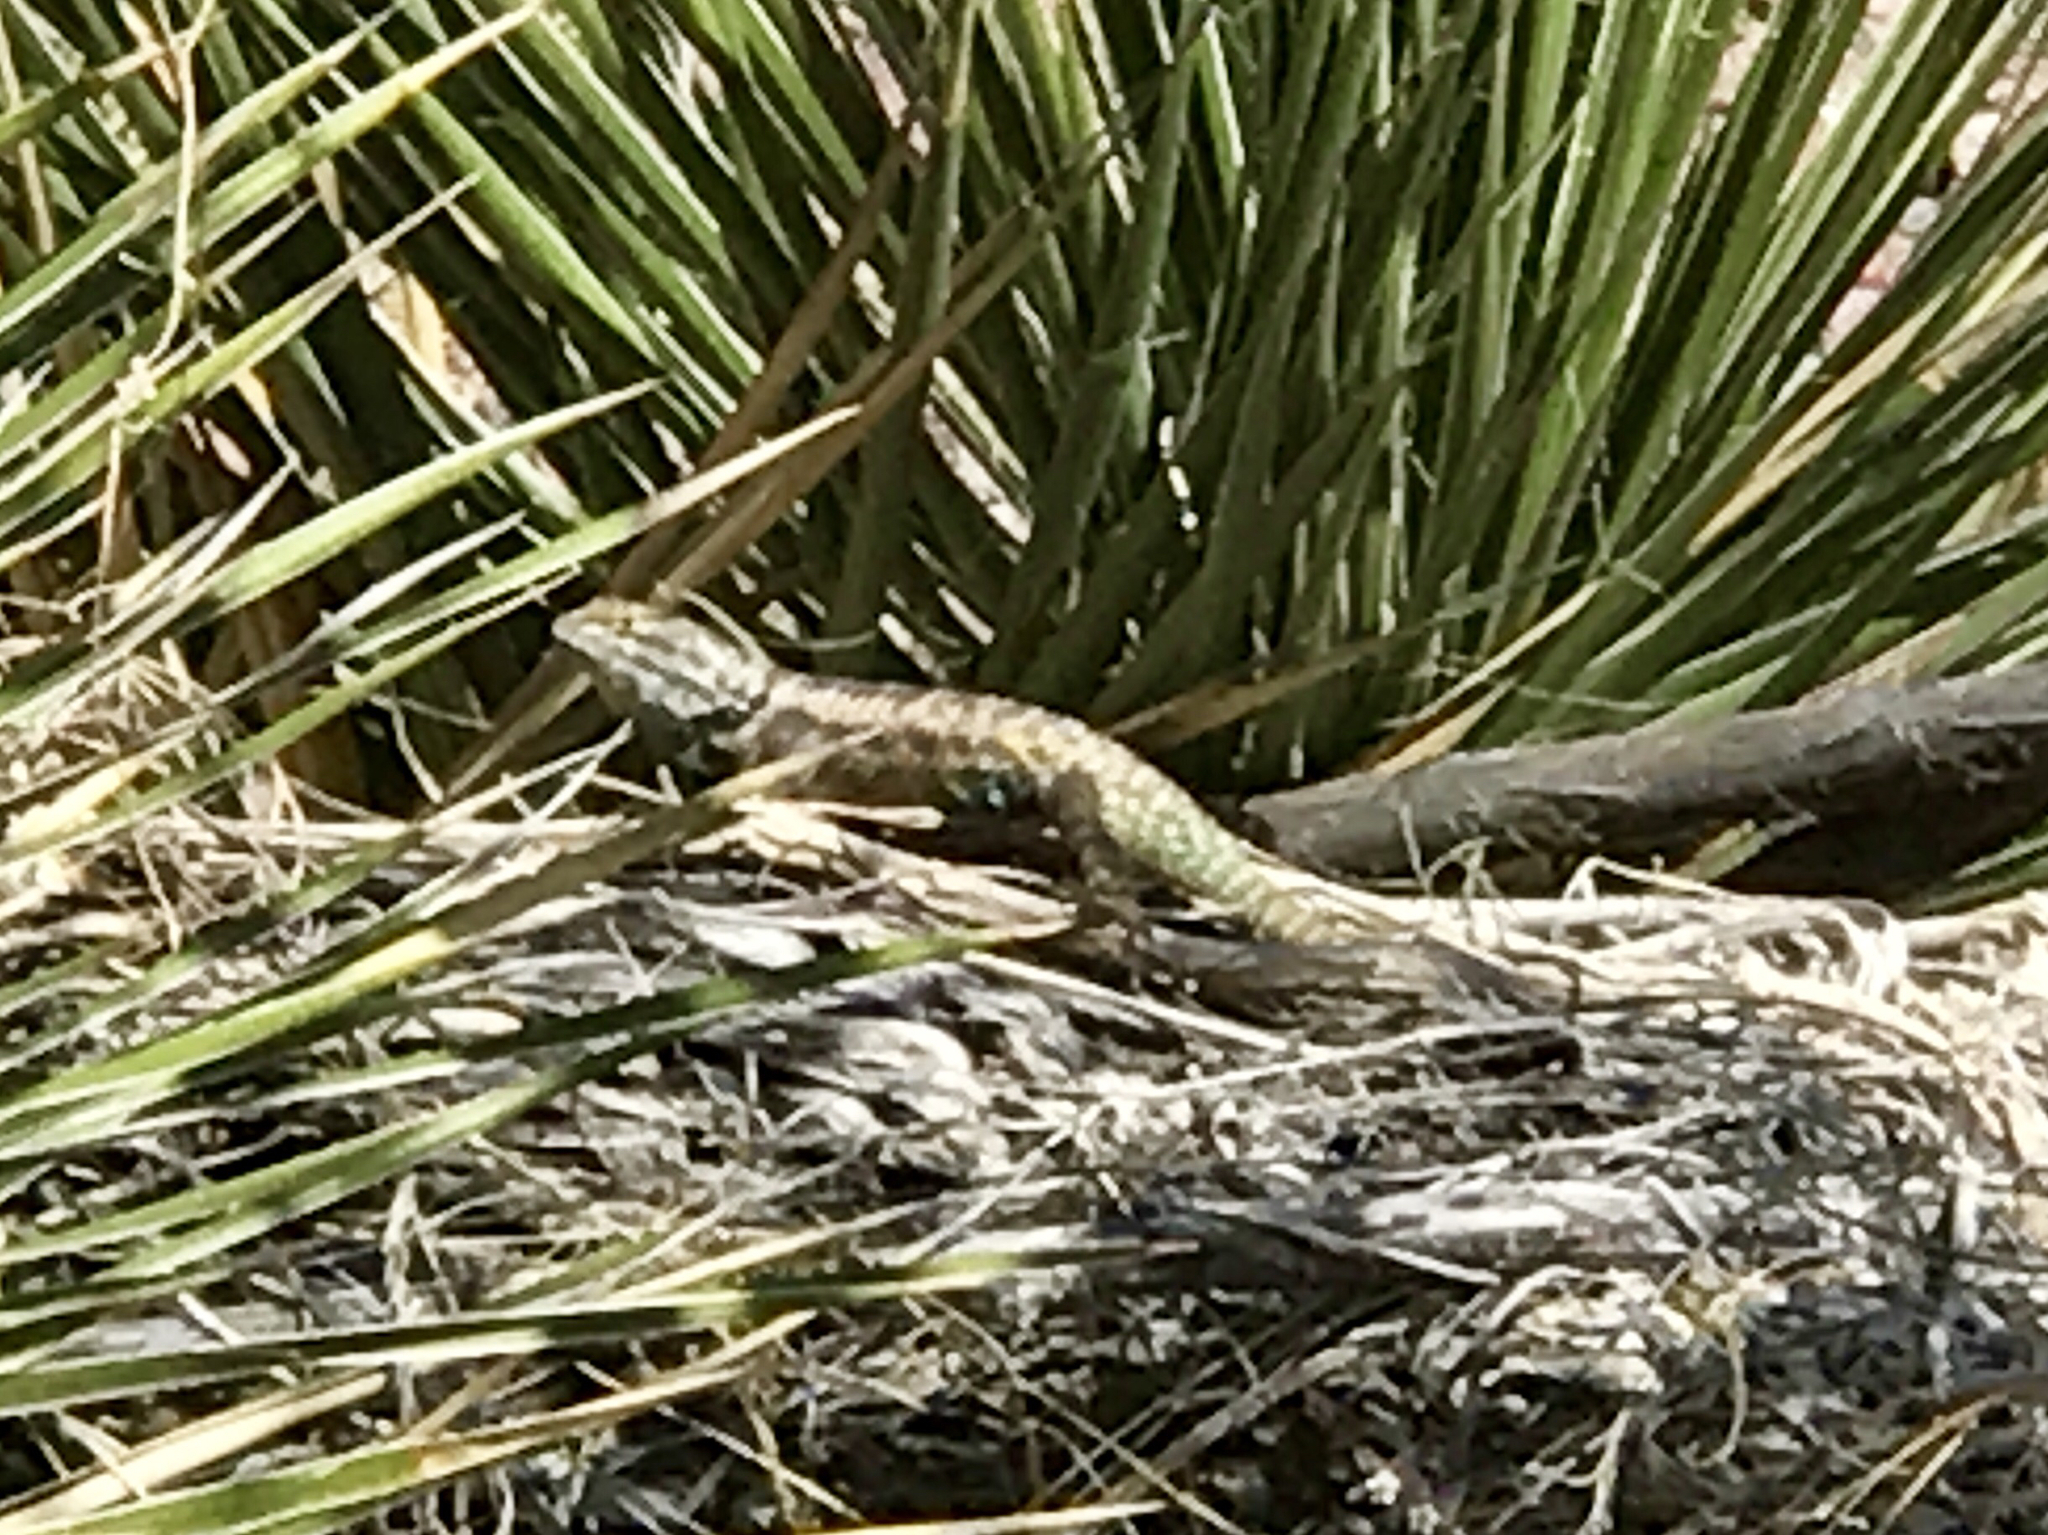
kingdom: Animalia
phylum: Chordata
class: Squamata
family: Phrynosomatidae
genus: Sceloporus
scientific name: Sceloporus magister
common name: Desert spiny lizard
